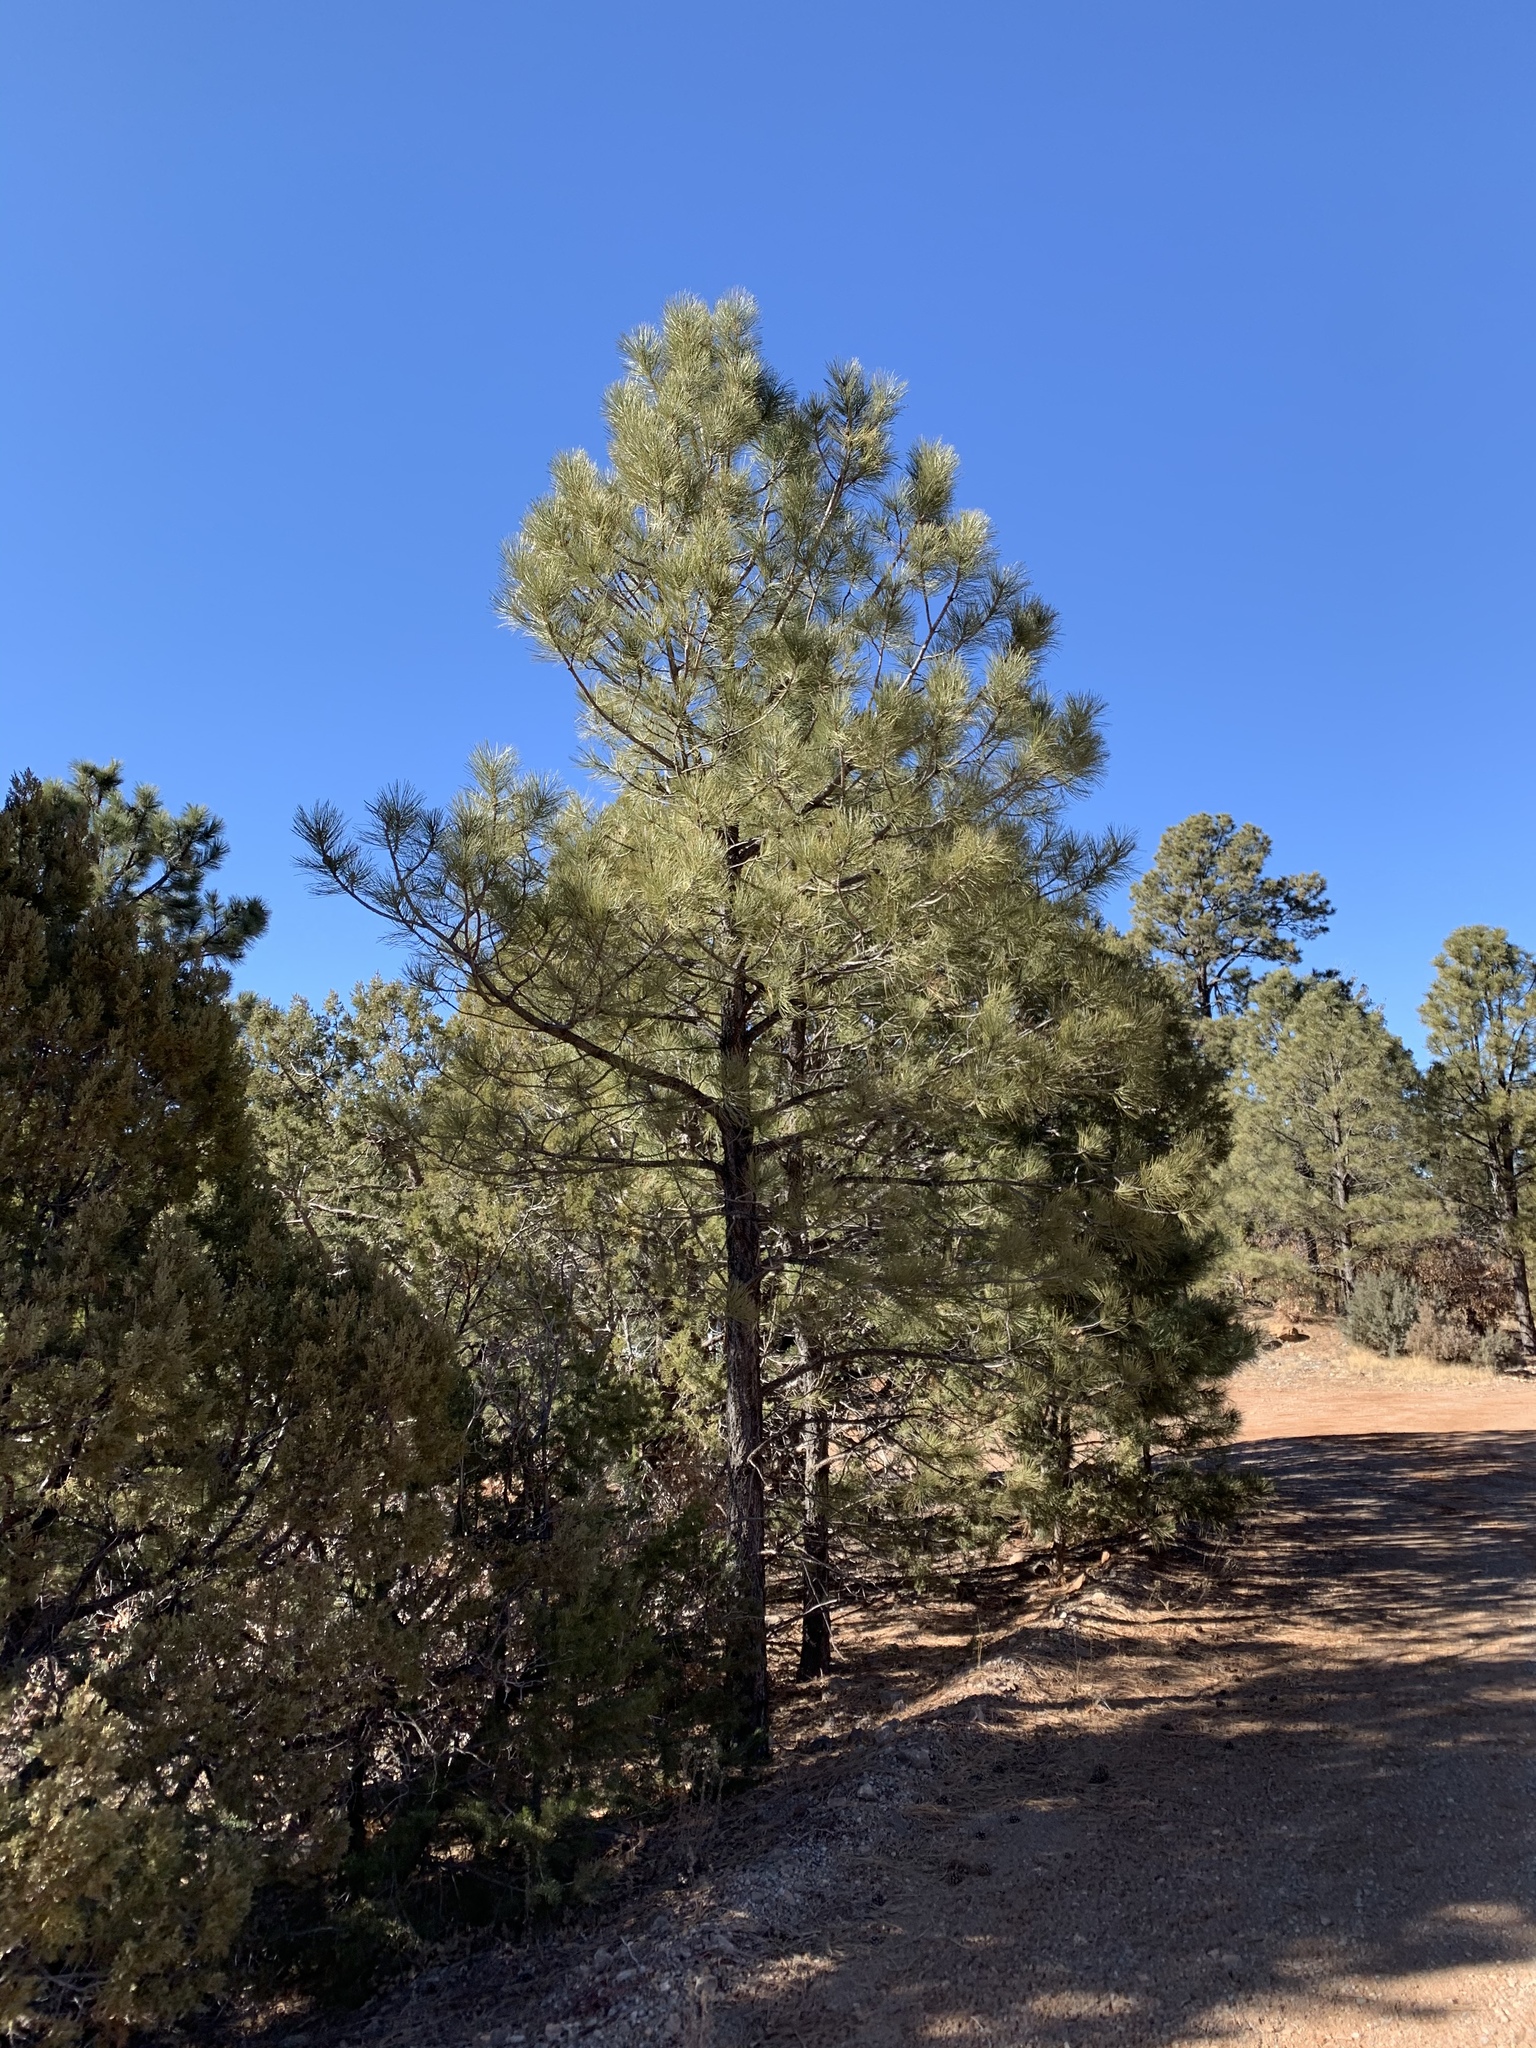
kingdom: Plantae
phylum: Tracheophyta
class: Pinopsida
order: Pinales
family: Pinaceae
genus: Pinus
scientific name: Pinus ponderosa
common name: Western yellow-pine
